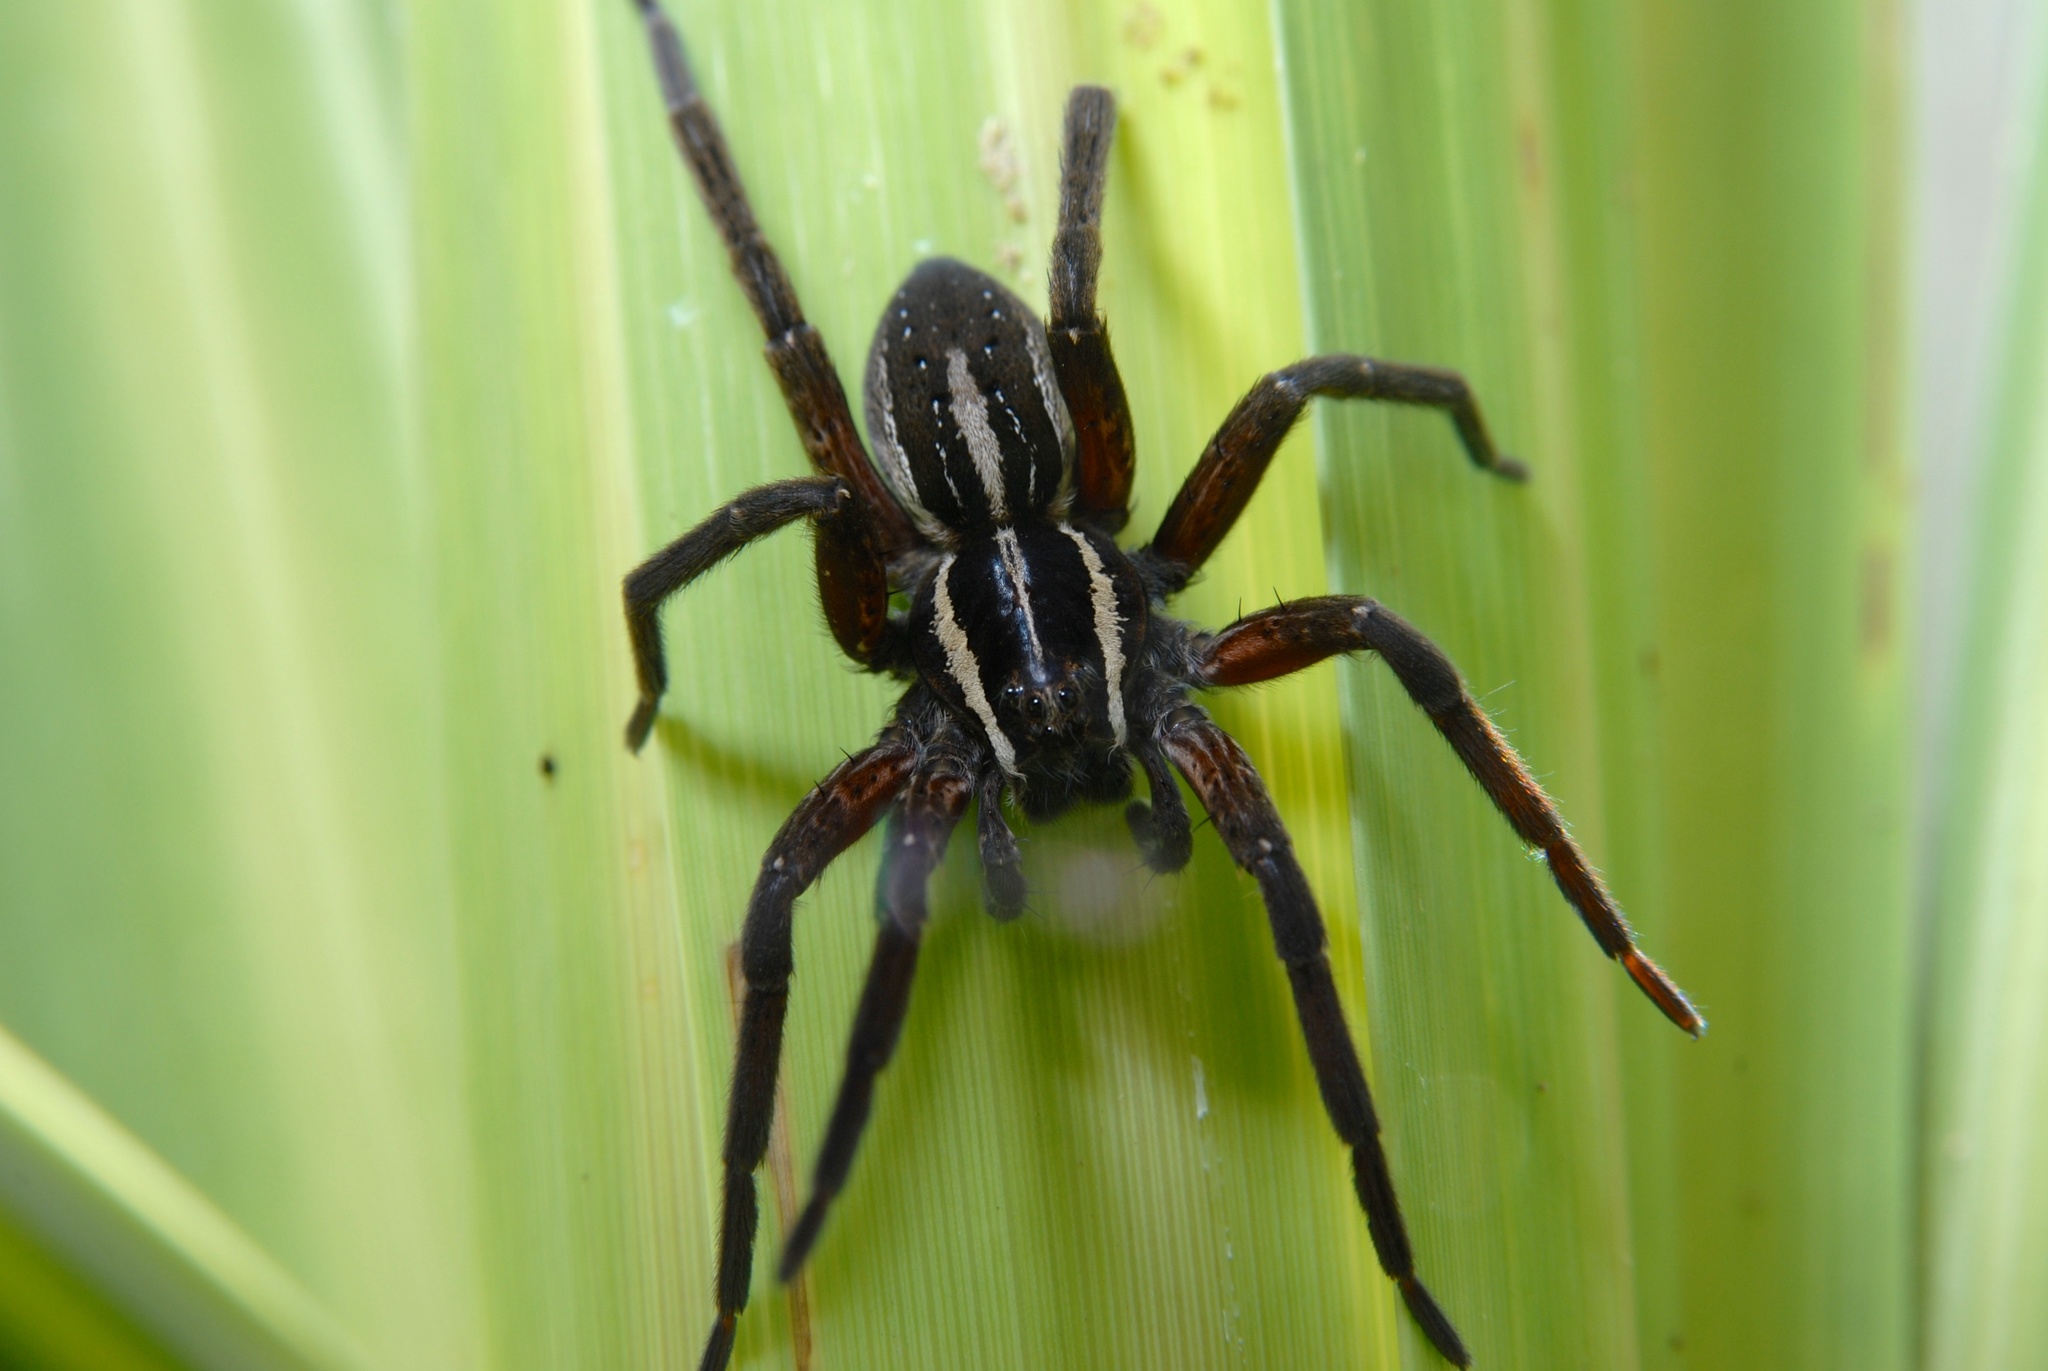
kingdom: Animalia
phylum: Arthropoda
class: Arachnida
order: Araneae
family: Pisauridae
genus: Dolomedes
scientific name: Dolomedes minor
